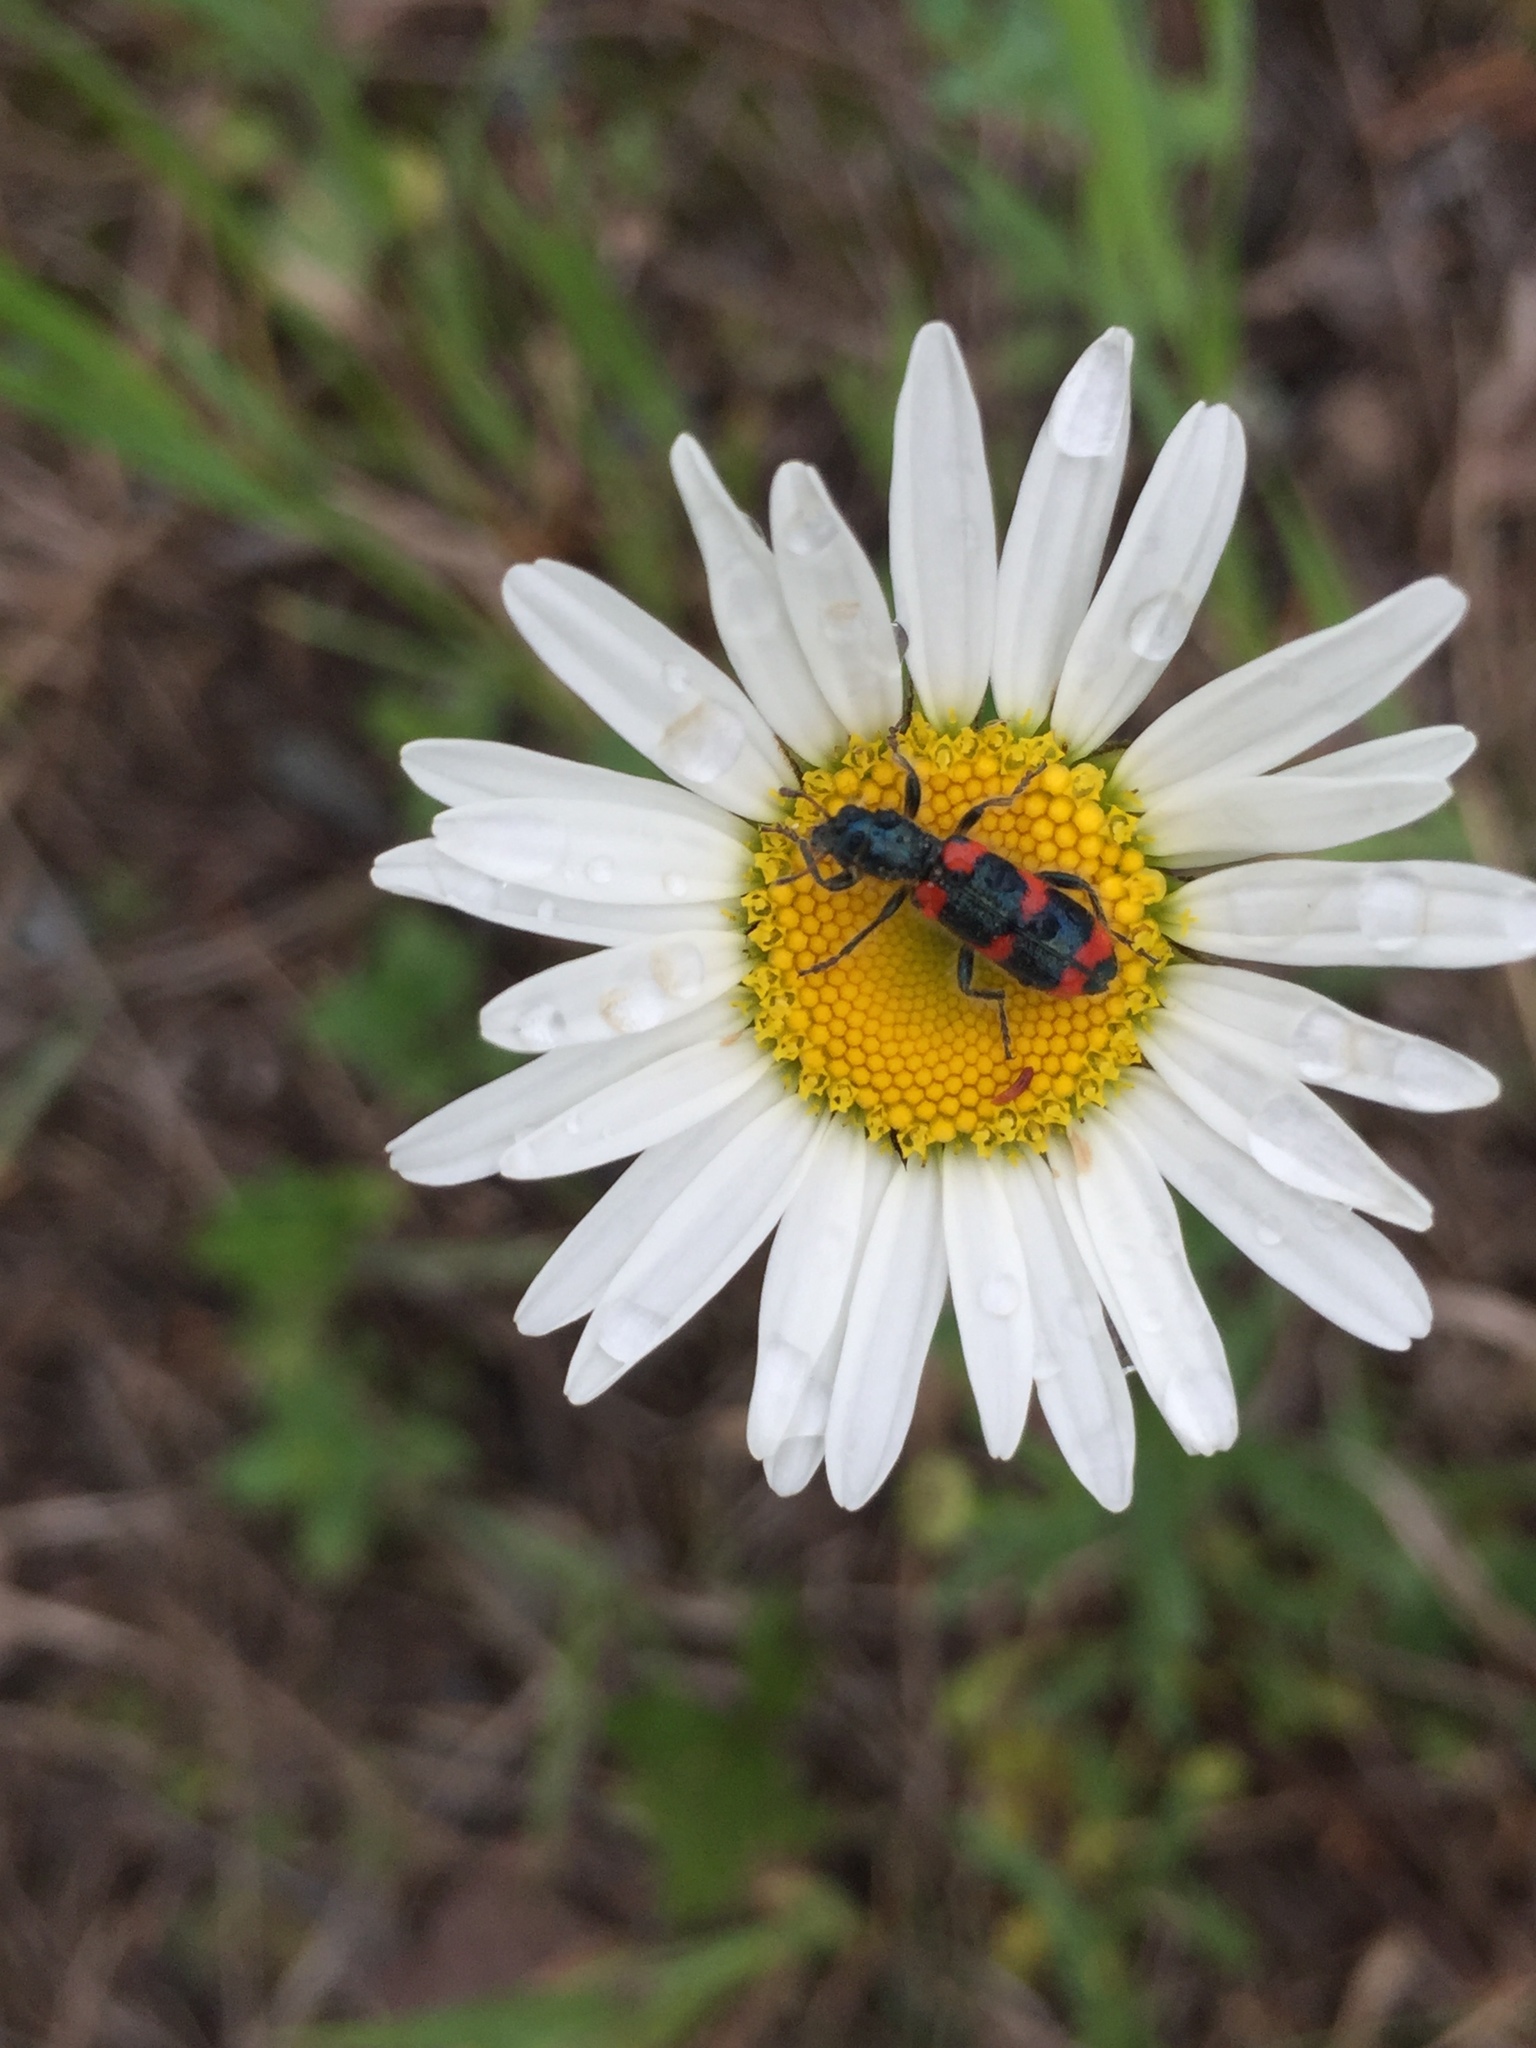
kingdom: Plantae
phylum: Tracheophyta
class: Magnoliopsida
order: Asterales
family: Asteraceae
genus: Leucanthemum
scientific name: Leucanthemum vulgare
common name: Oxeye daisy
